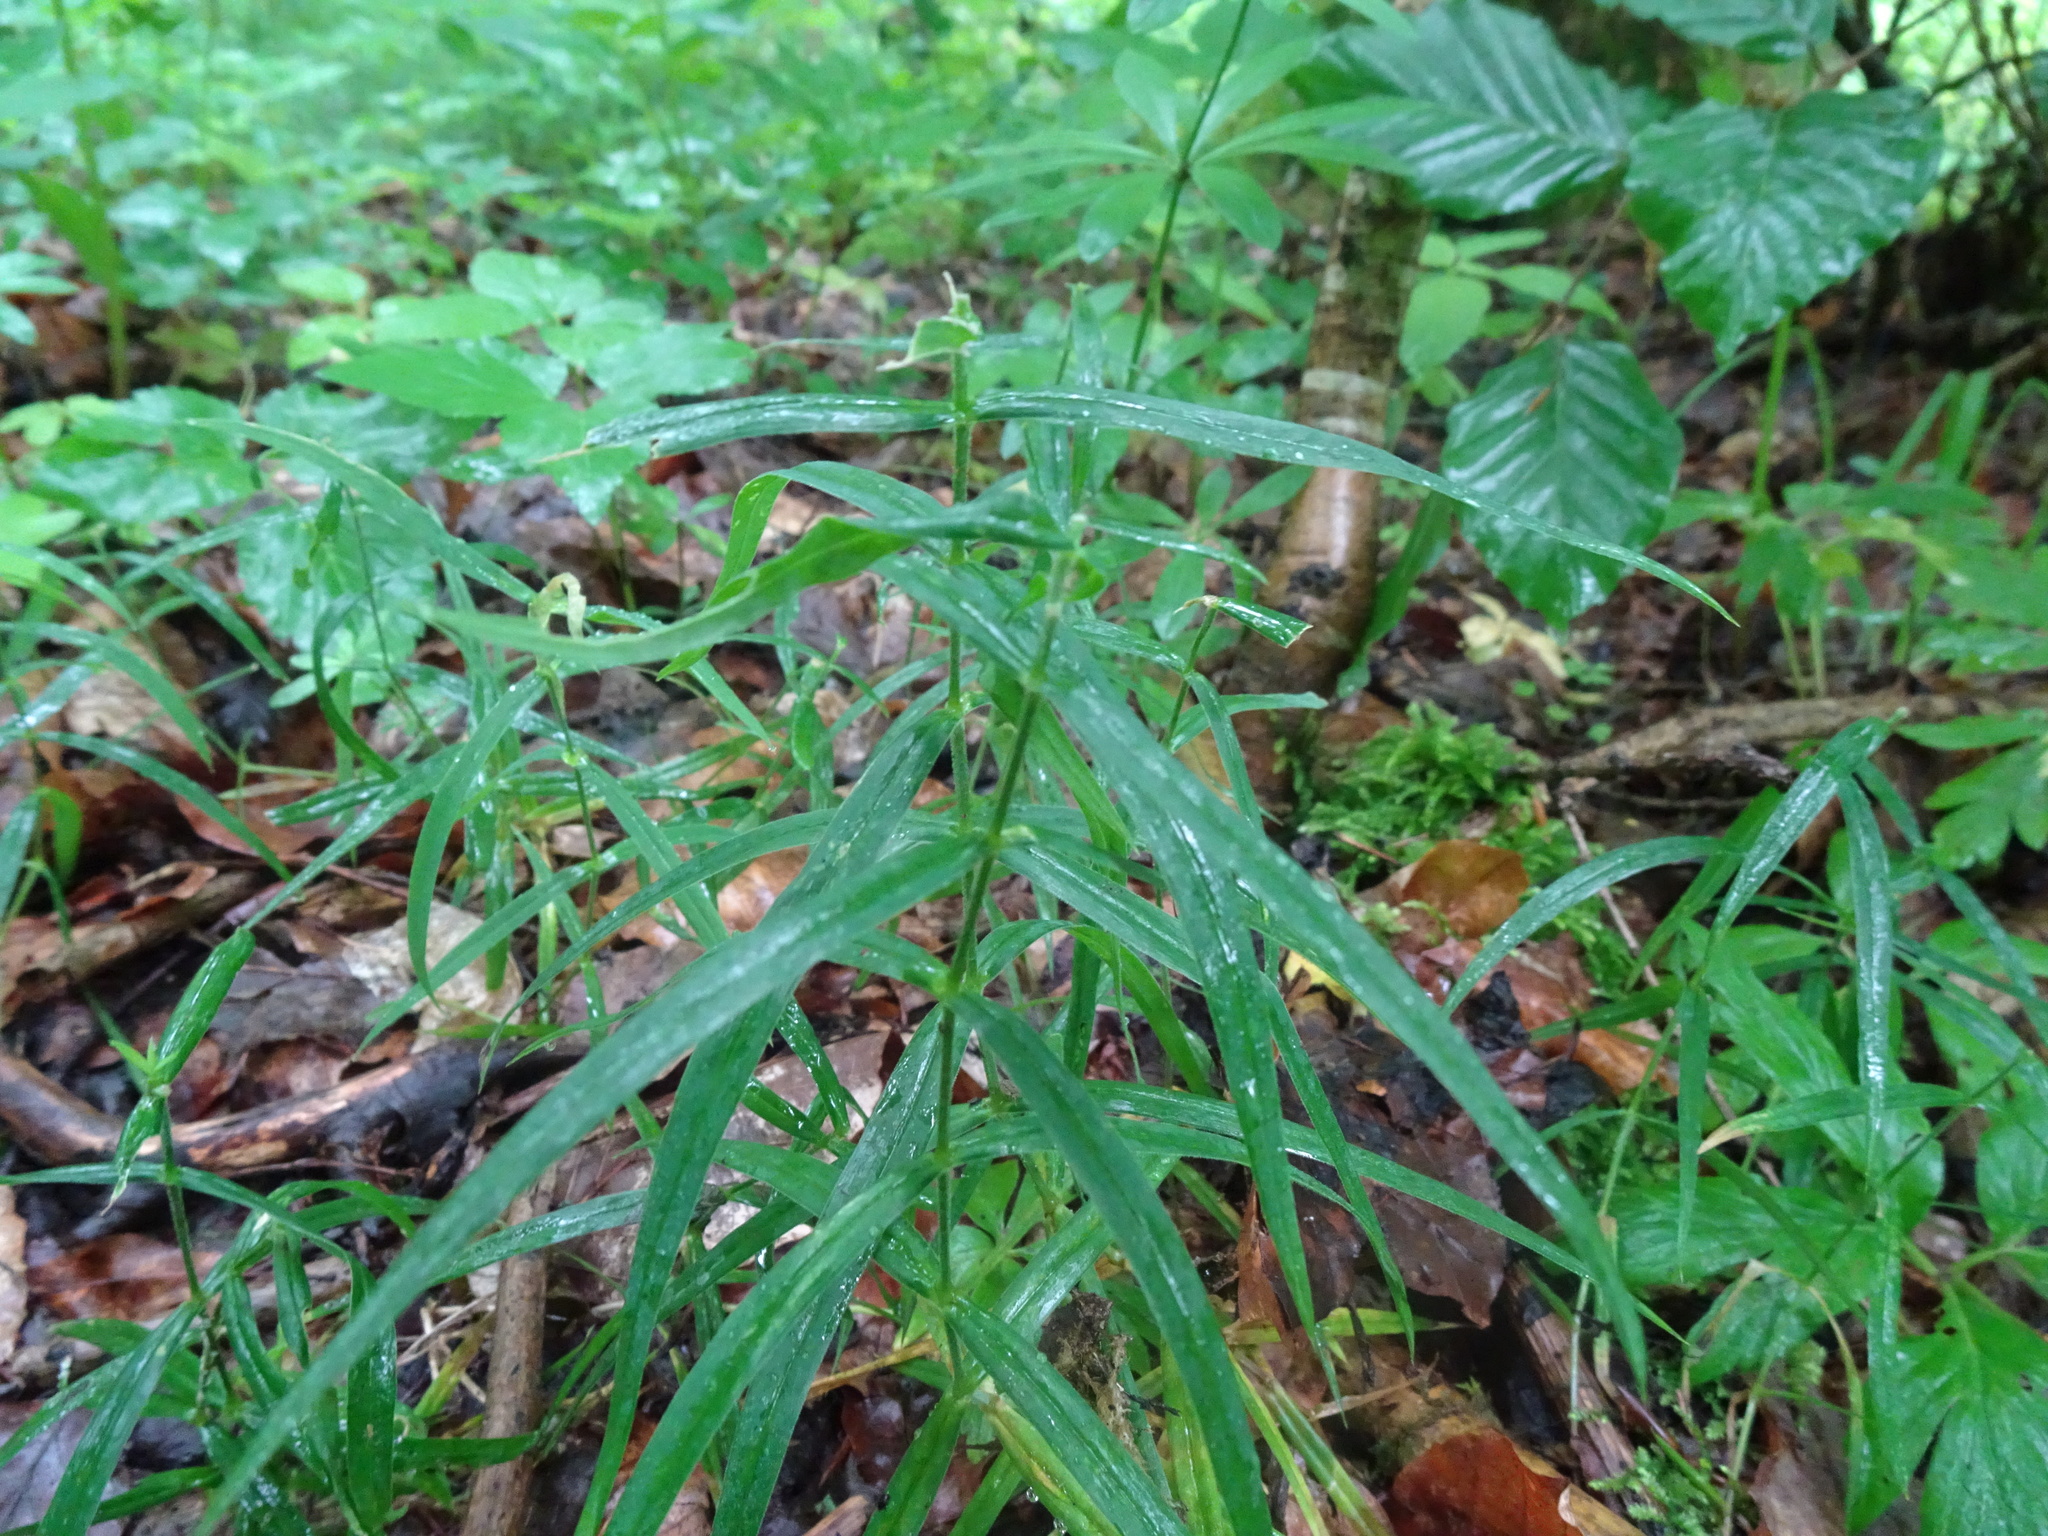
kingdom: Plantae
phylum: Tracheophyta
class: Magnoliopsida
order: Caryophyllales
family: Caryophyllaceae
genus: Rabelera
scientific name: Rabelera holostea
